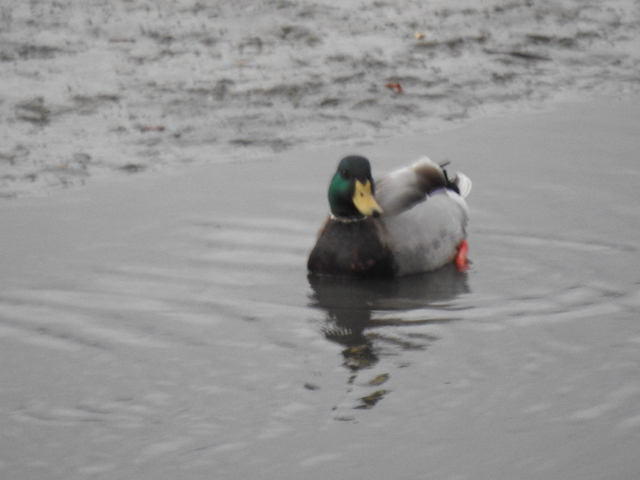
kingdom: Animalia
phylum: Chordata
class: Aves
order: Anseriformes
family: Anatidae
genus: Anas
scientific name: Anas platyrhynchos
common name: Mallard
